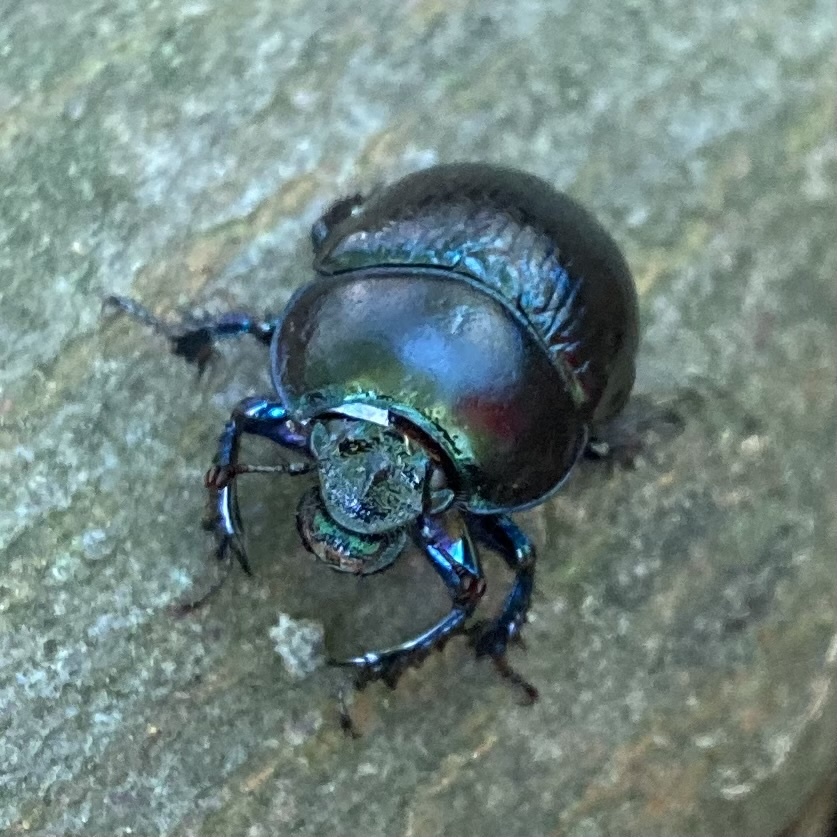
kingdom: Animalia
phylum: Arthropoda
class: Insecta
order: Coleoptera
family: Geotrupidae
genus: Anoplotrupes
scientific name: Anoplotrupes stercorosus
